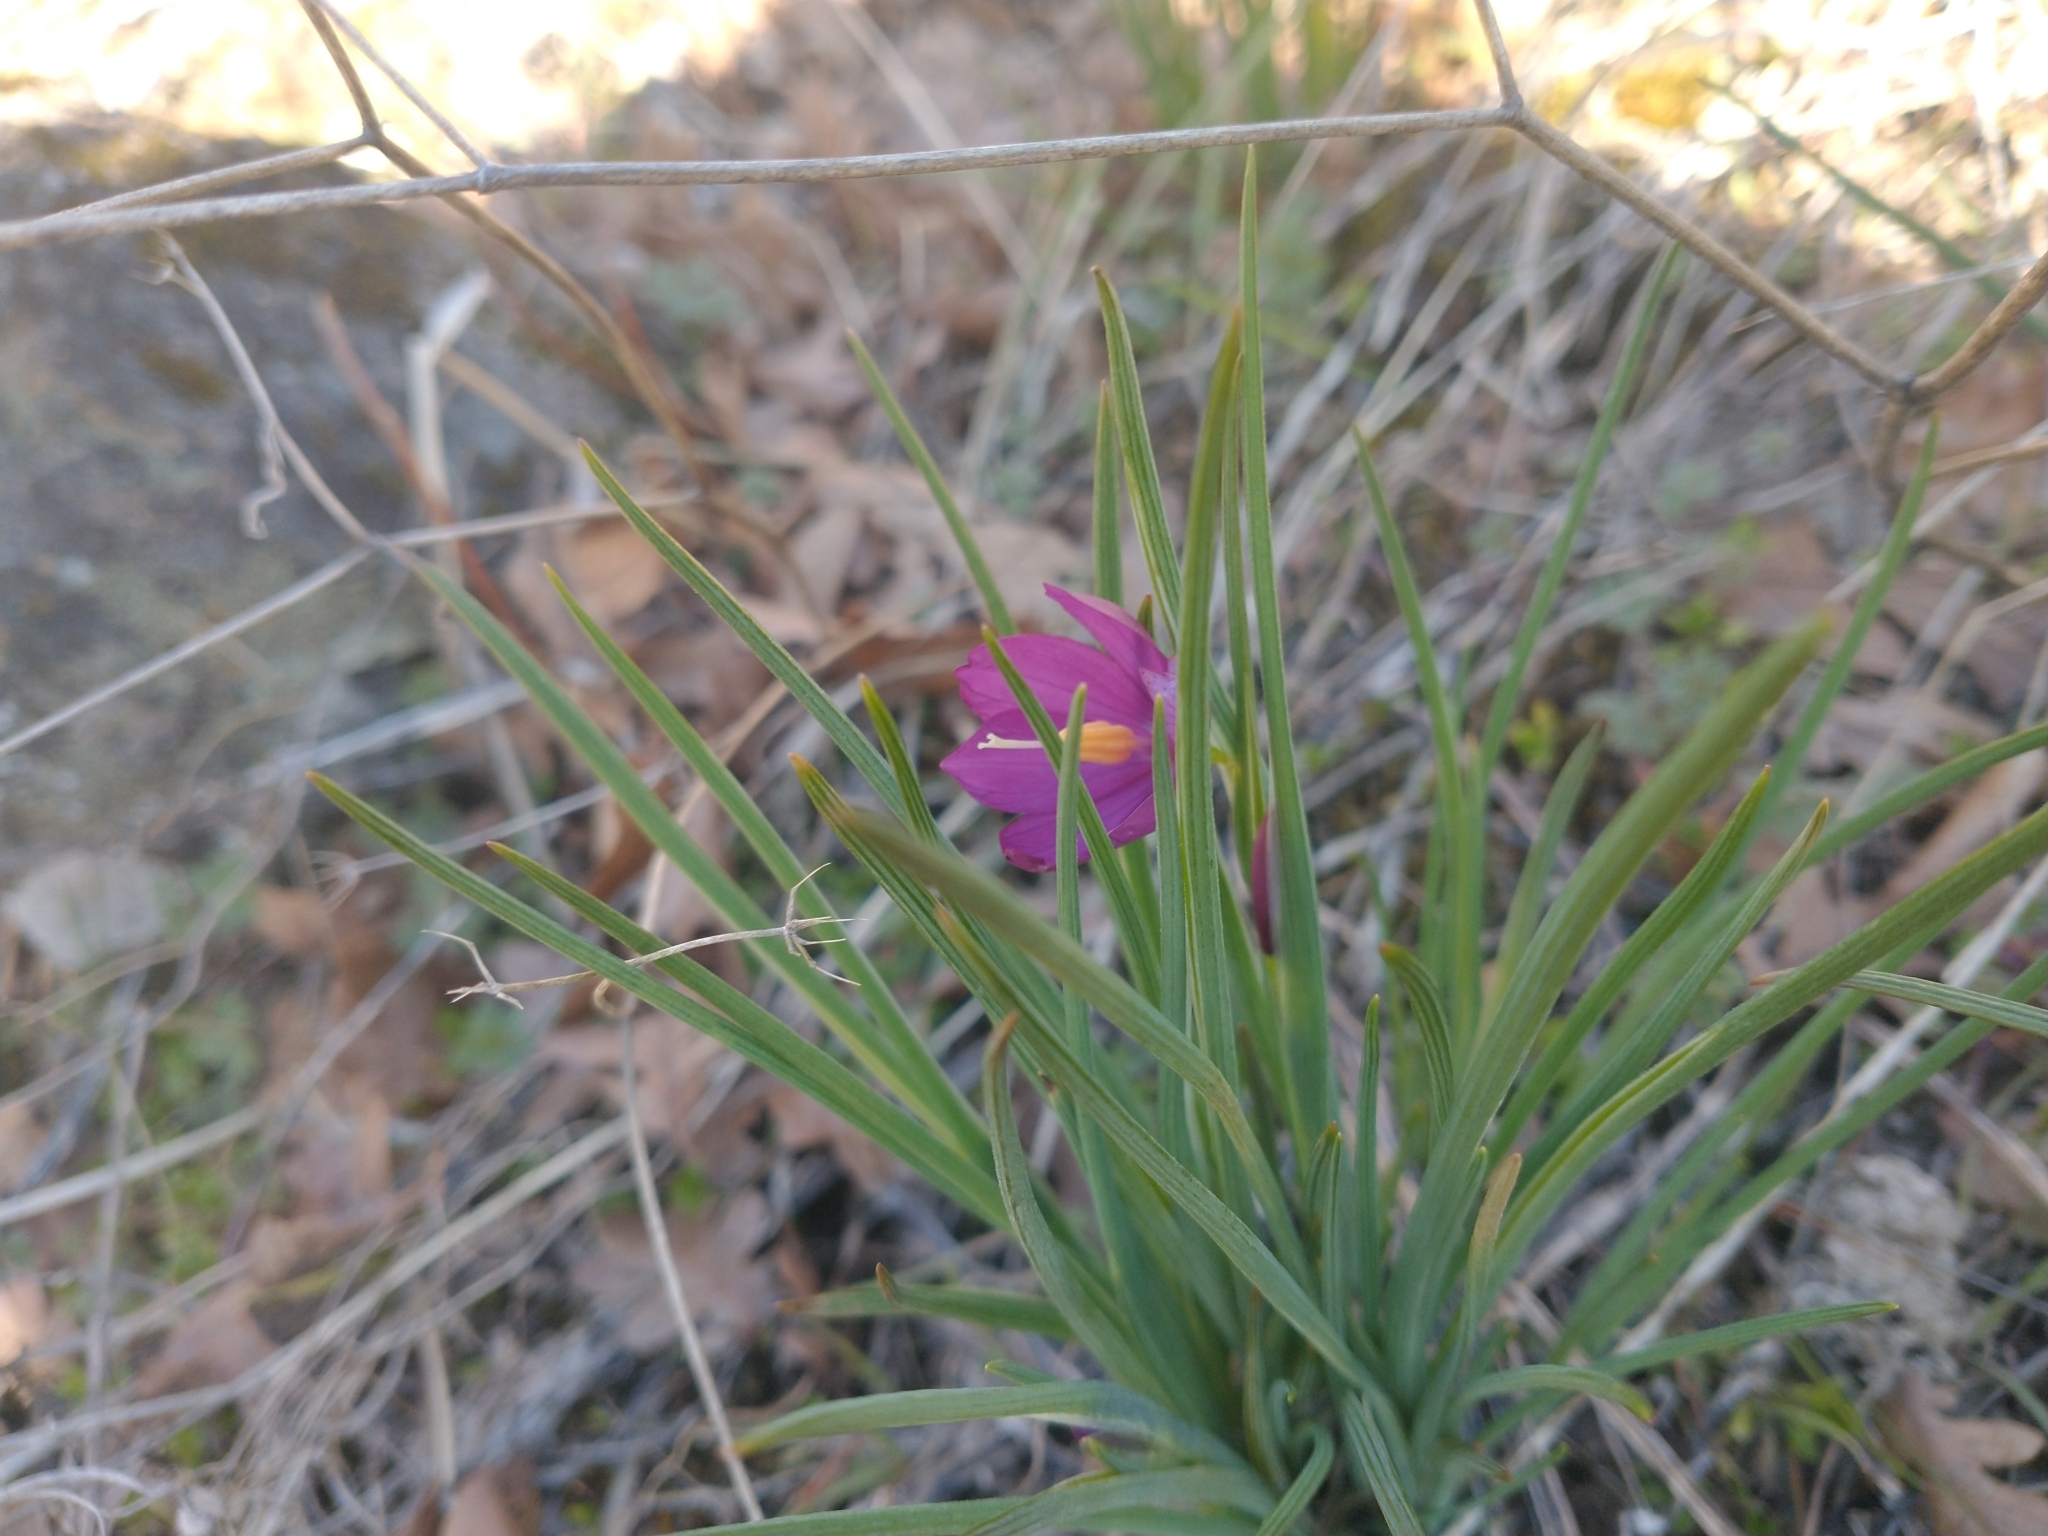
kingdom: Plantae
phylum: Tracheophyta
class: Liliopsida
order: Asparagales
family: Iridaceae
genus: Olsynium
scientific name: Olsynium douglasii
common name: Douglas' grasswidow
